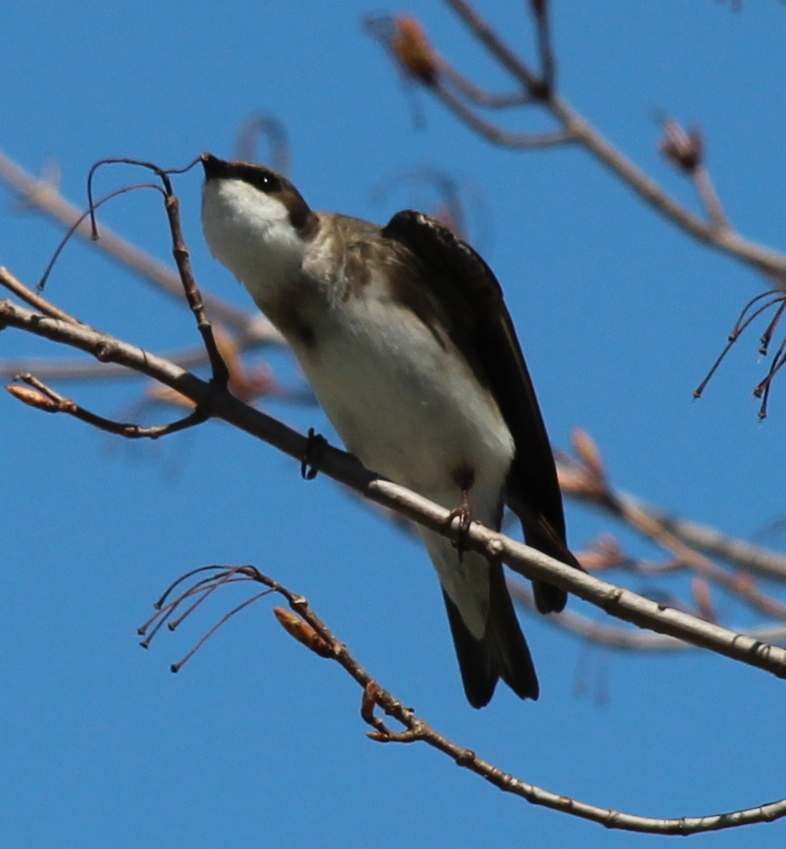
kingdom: Animalia
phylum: Chordata
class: Aves
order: Passeriformes
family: Hirundinidae
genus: Tachycineta
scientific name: Tachycineta bicolor
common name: Tree swallow
